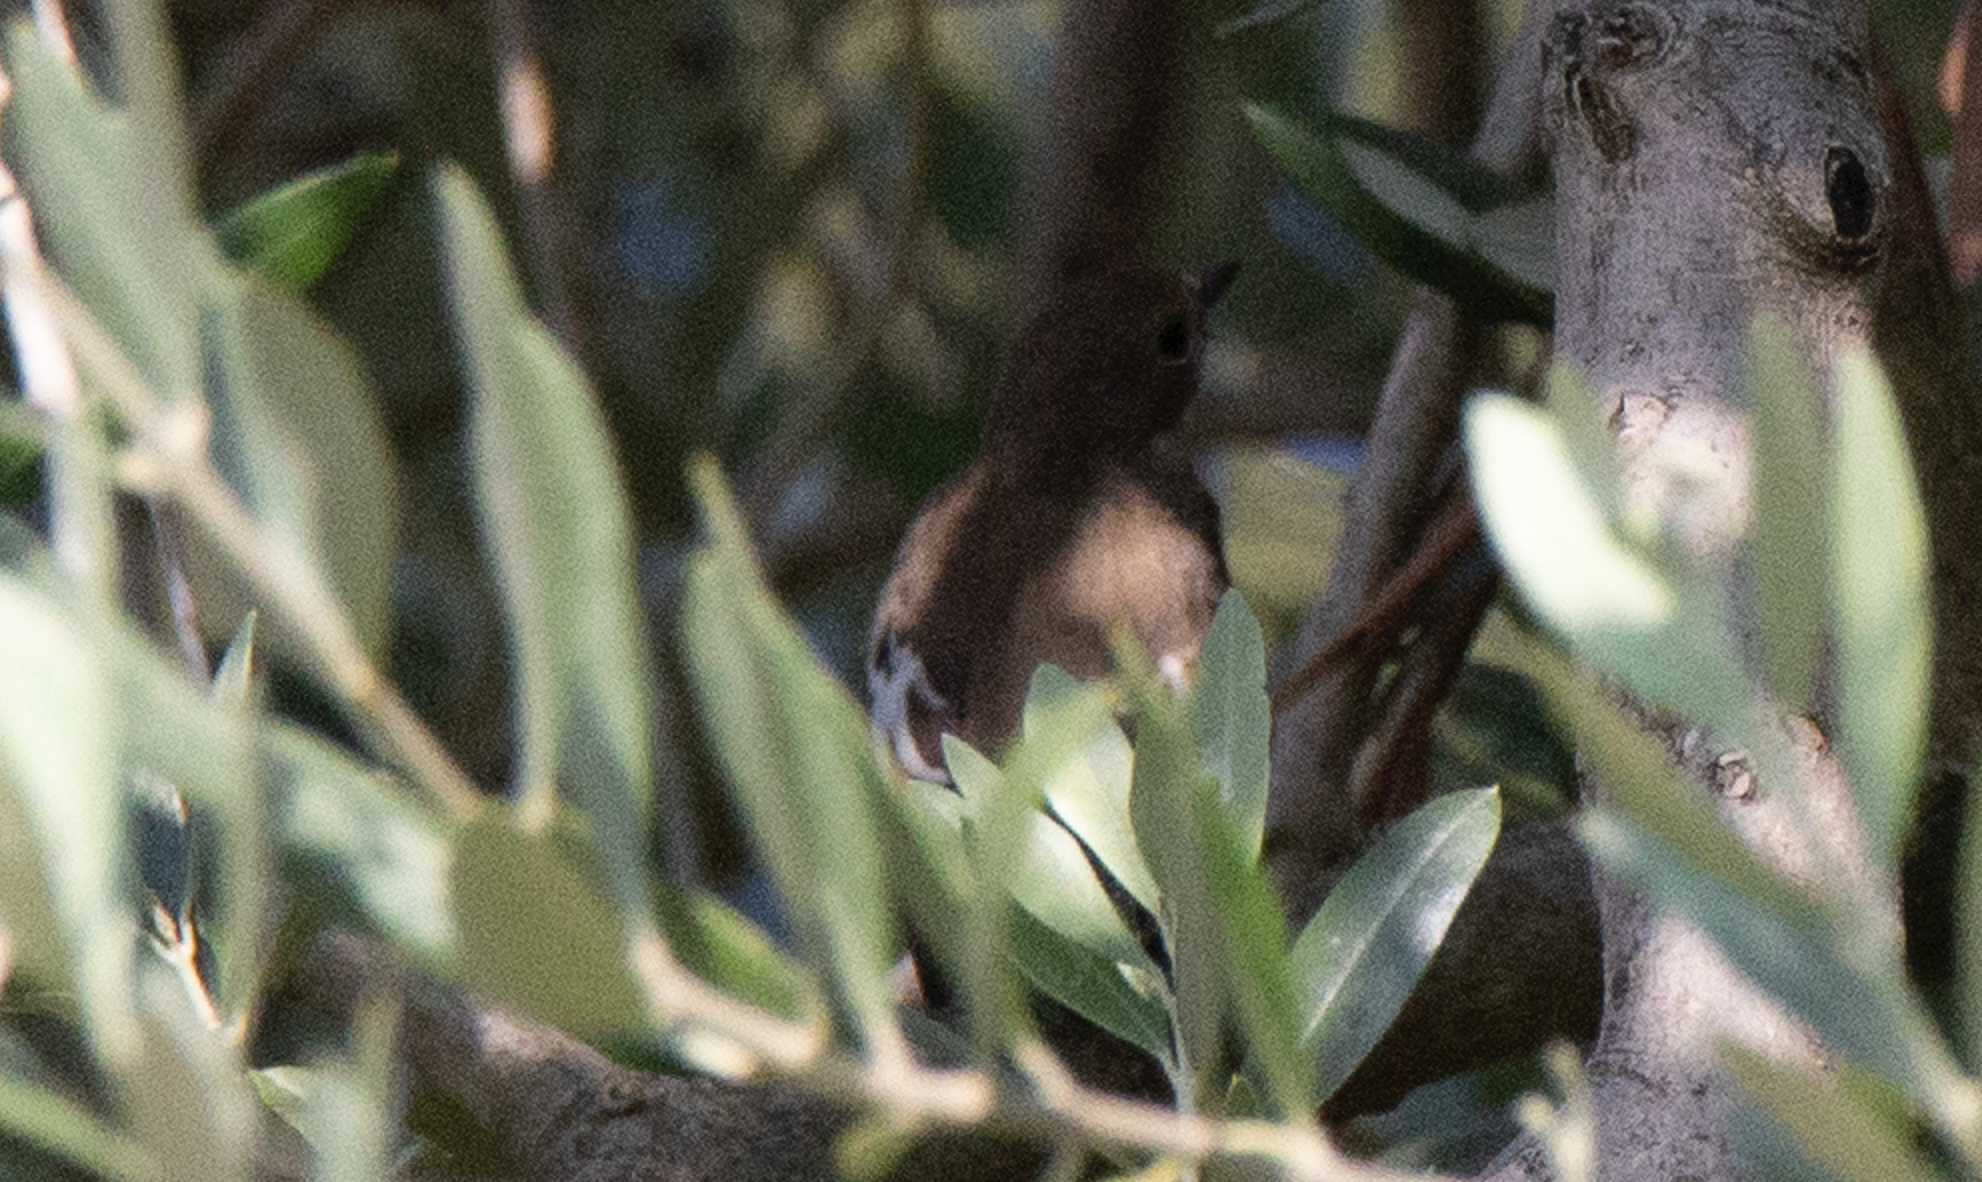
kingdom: Animalia
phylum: Chordata
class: Aves
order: Passeriformes
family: Muscicapidae
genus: Ficedula
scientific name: Ficedula hypoleuca
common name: European pied flycatcher
